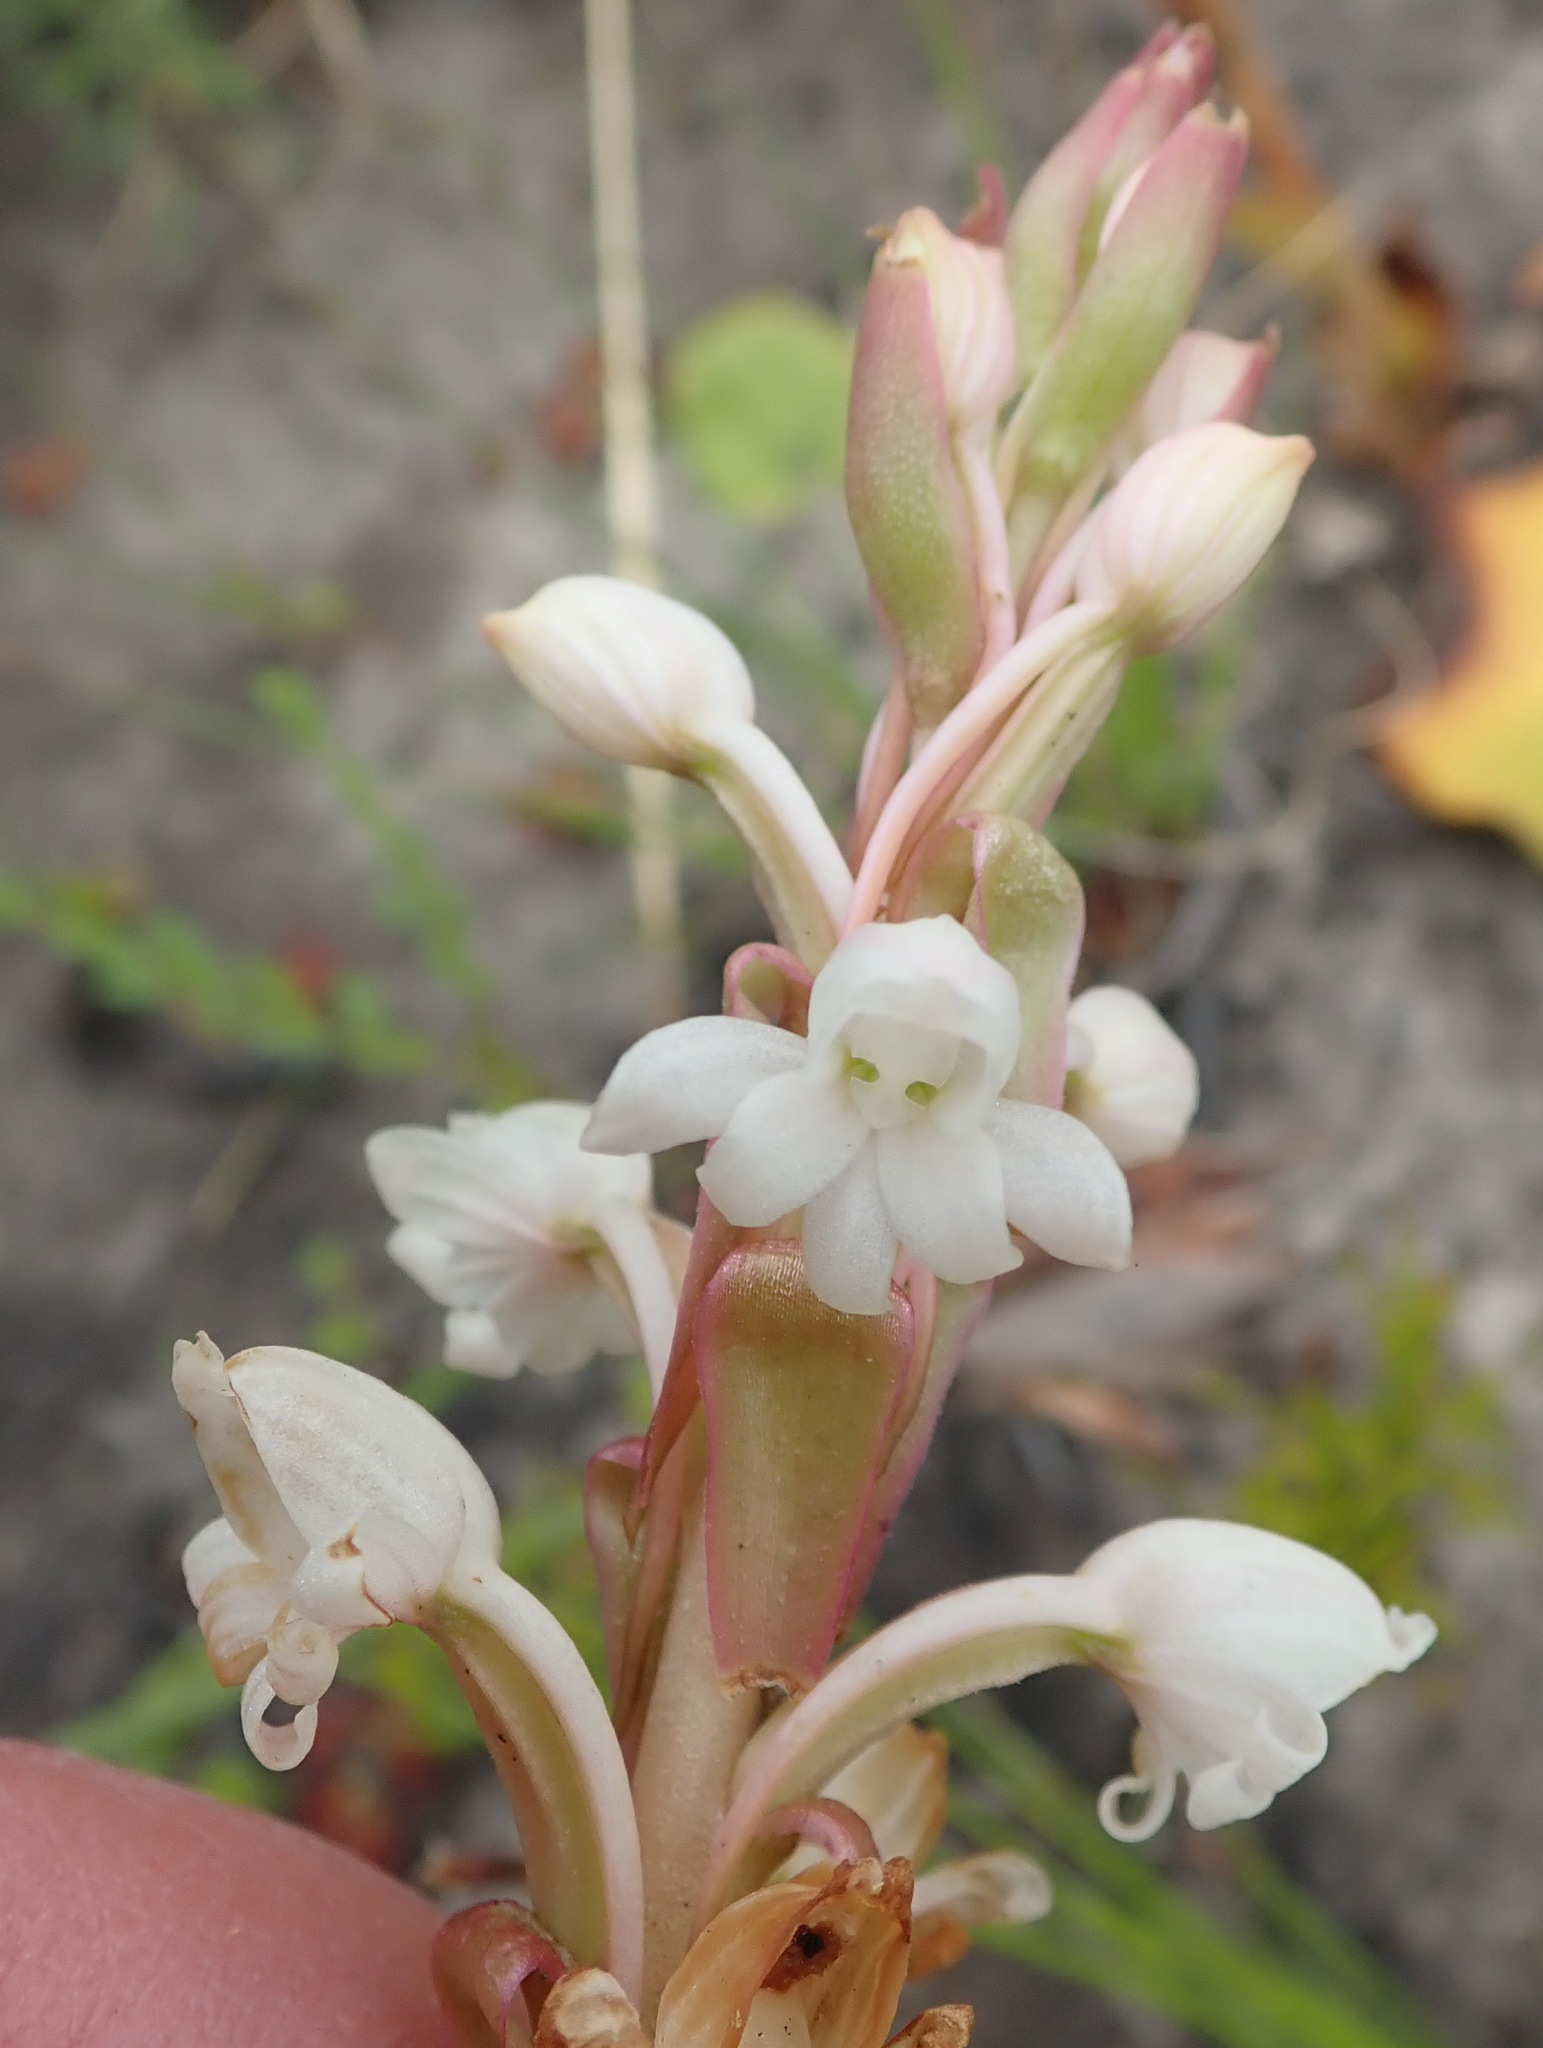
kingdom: Plantae
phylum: Tracheophyta
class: Liliopsida
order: Asparagales
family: Orchidaceae
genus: Satyrium
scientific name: Satyrium acuminatum
